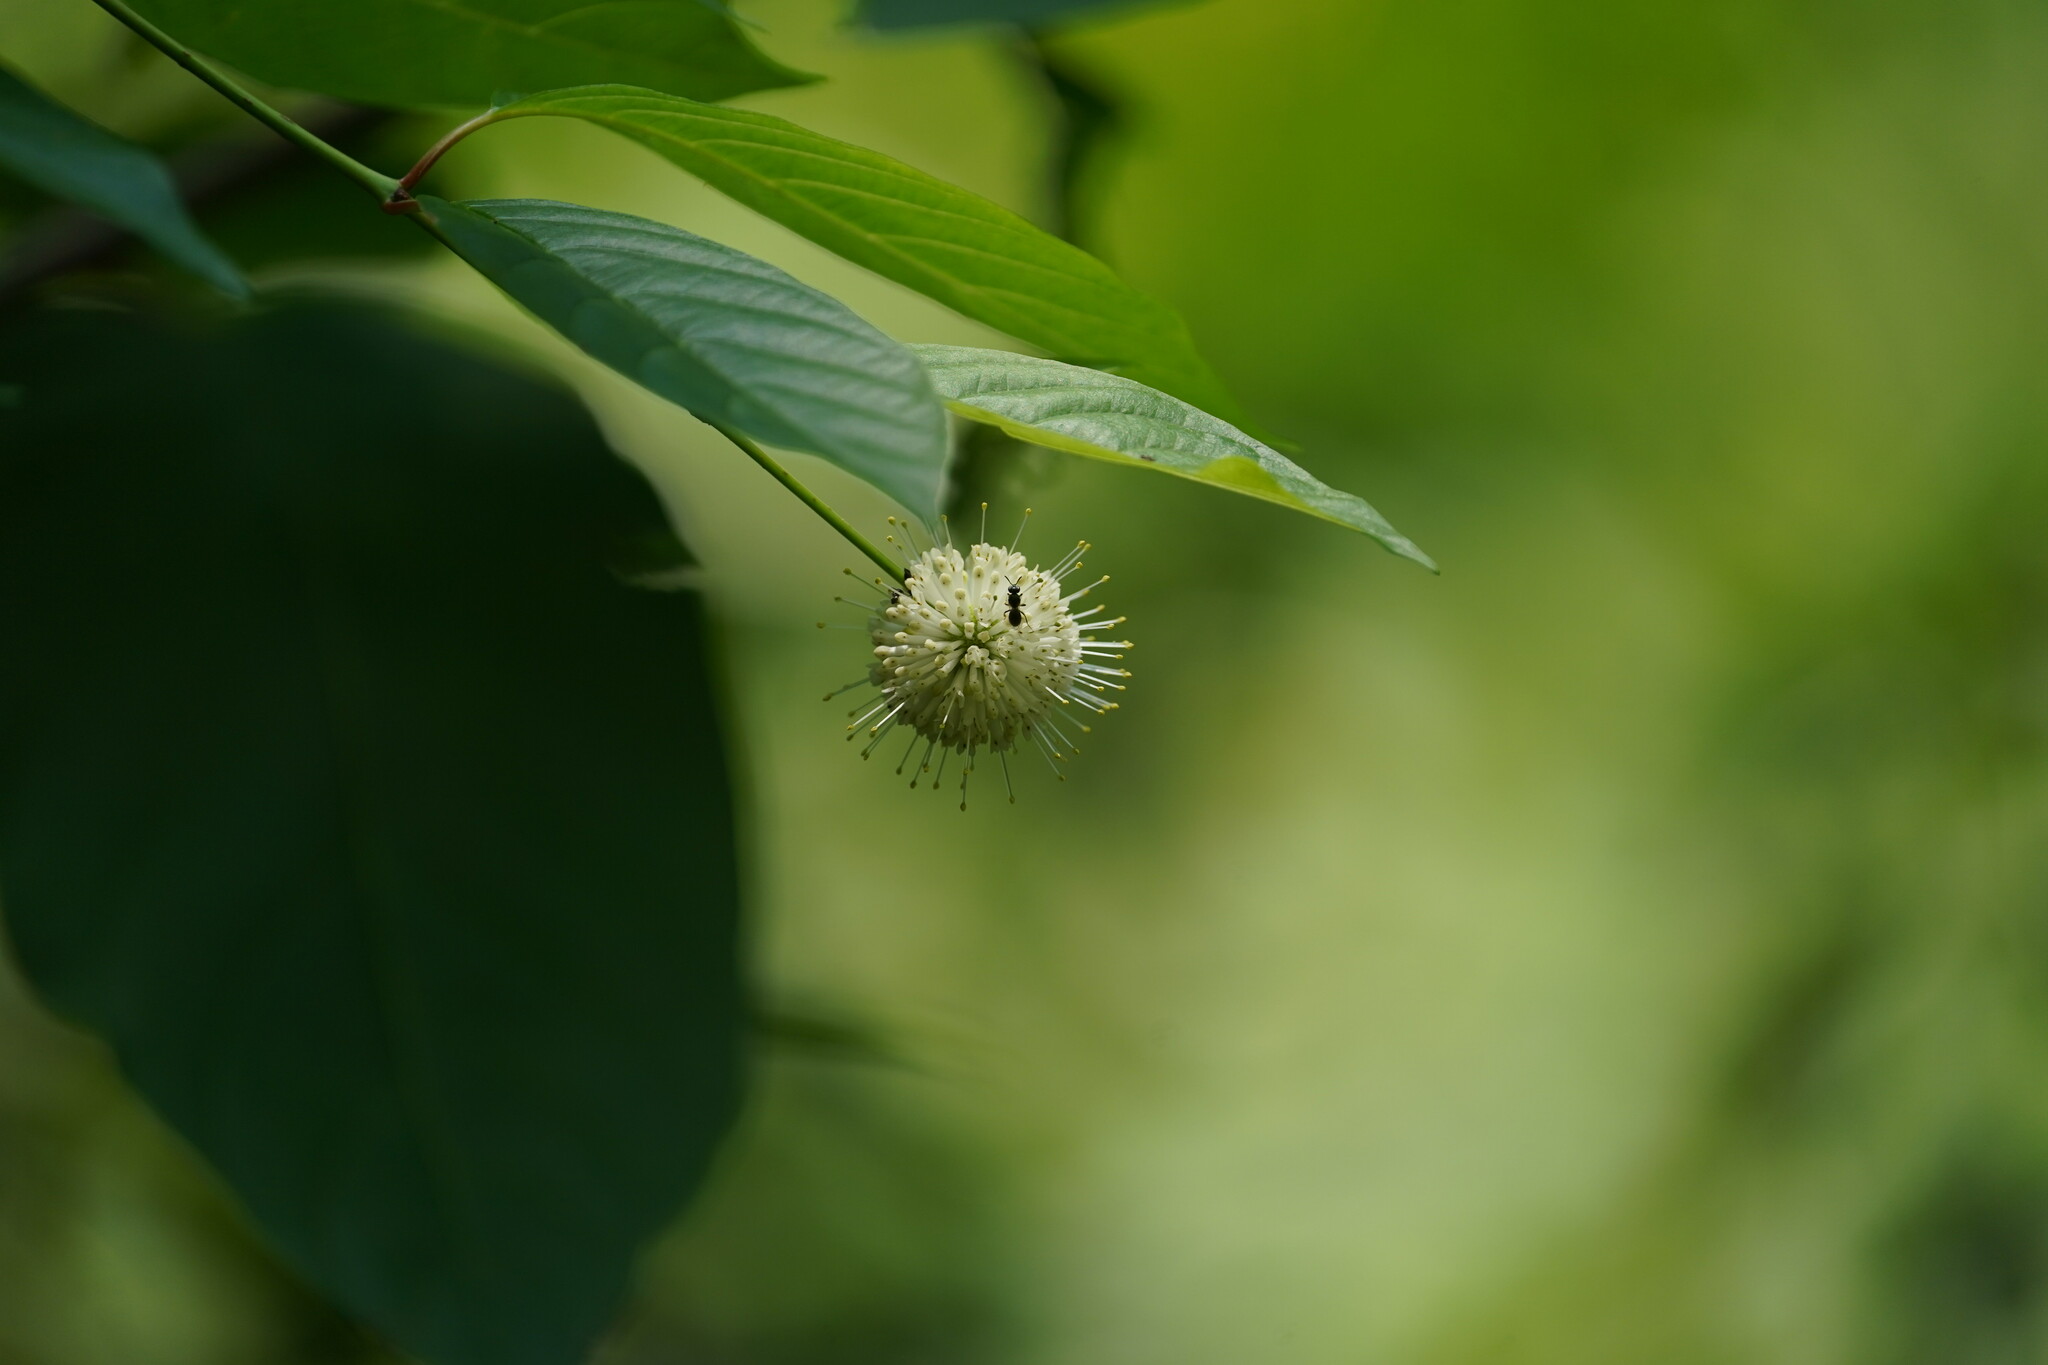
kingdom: Plantae
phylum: Tracheophyta
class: Magnoliopsida
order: Gentianales
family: Rubiaceae
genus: Cephalanthus
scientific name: Cephalanthus occidentalis
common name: Button-willow
